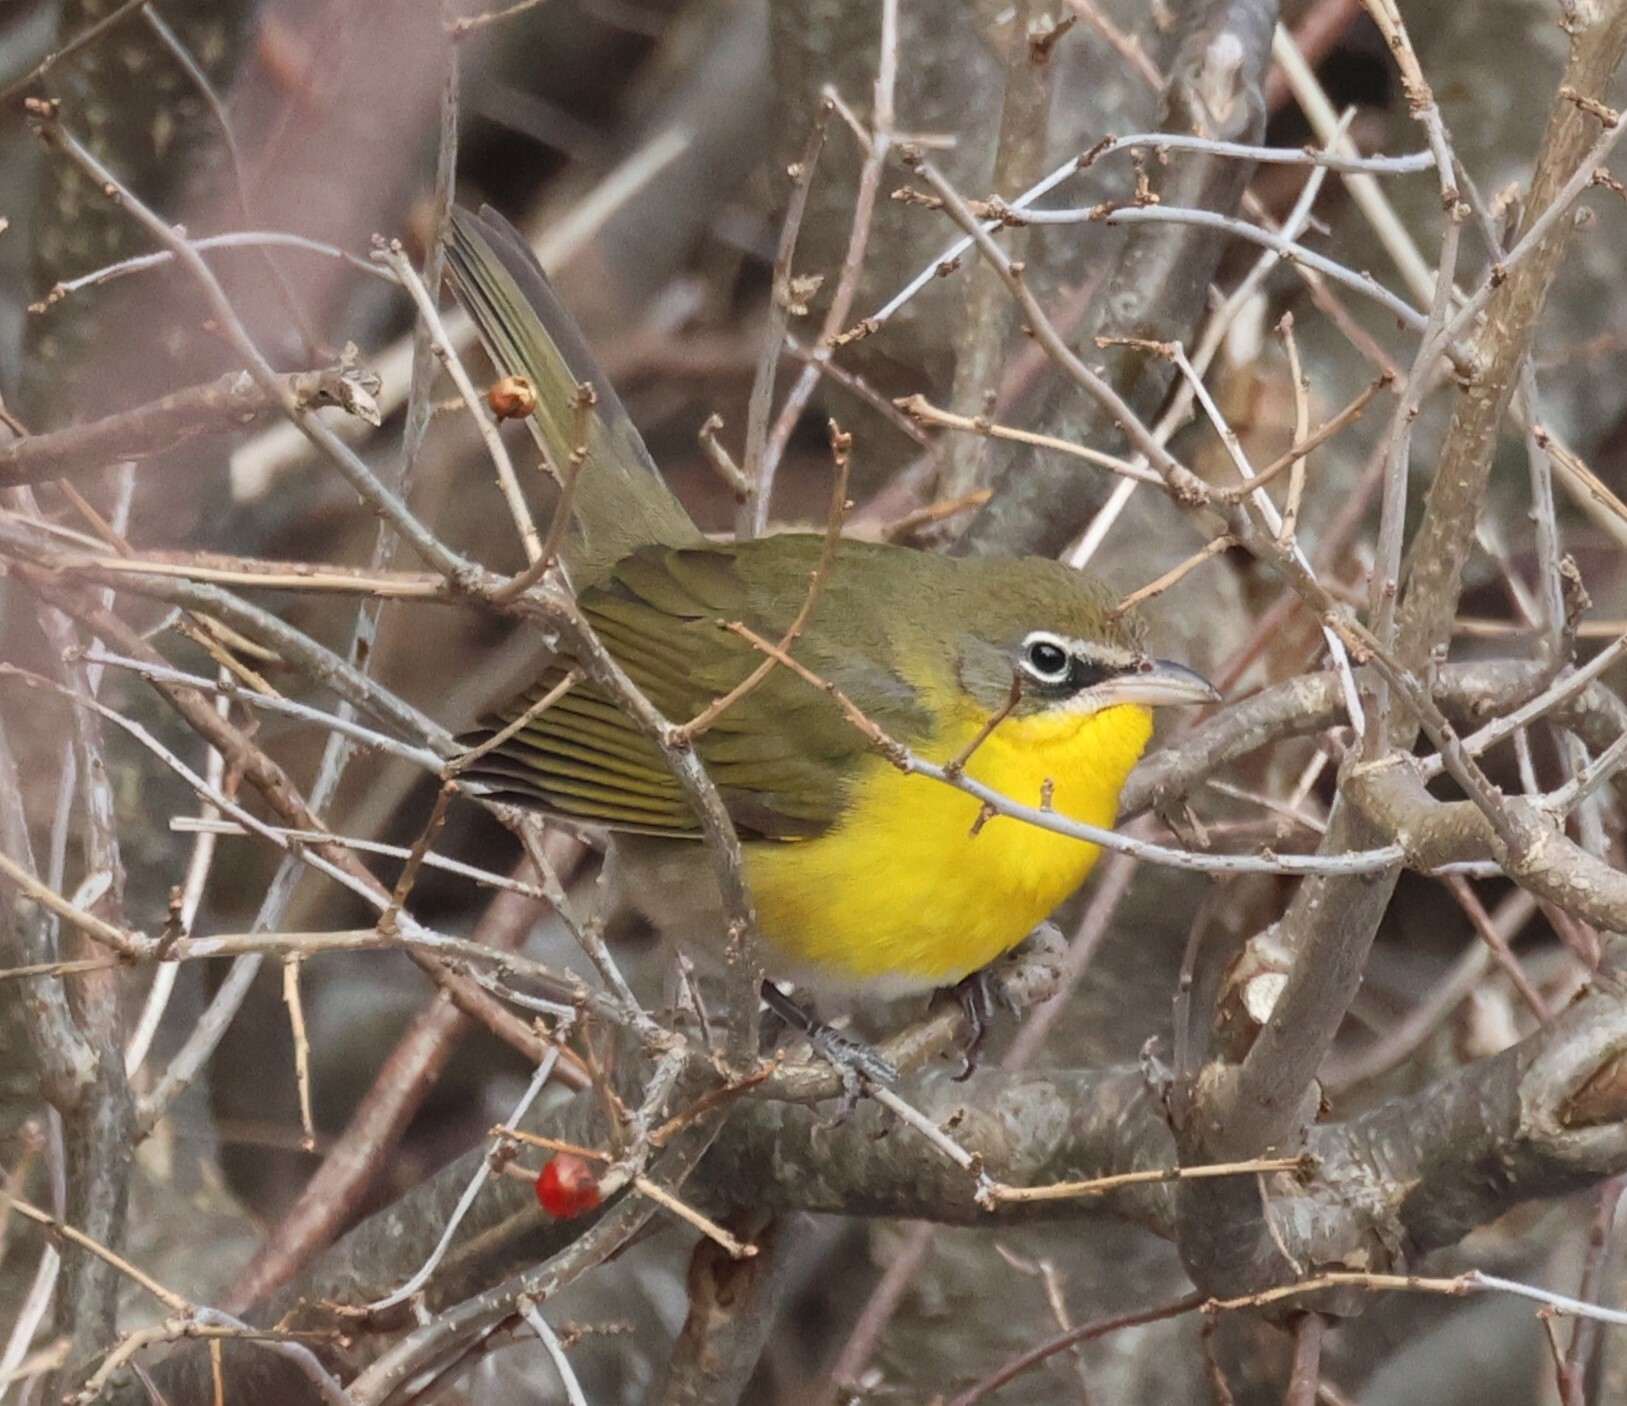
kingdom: Animalia
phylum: Chordata
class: Aves
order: Passeriformes
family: Parulidae
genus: Icteria
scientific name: Icteria virens
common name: Yellow-breasted chat
